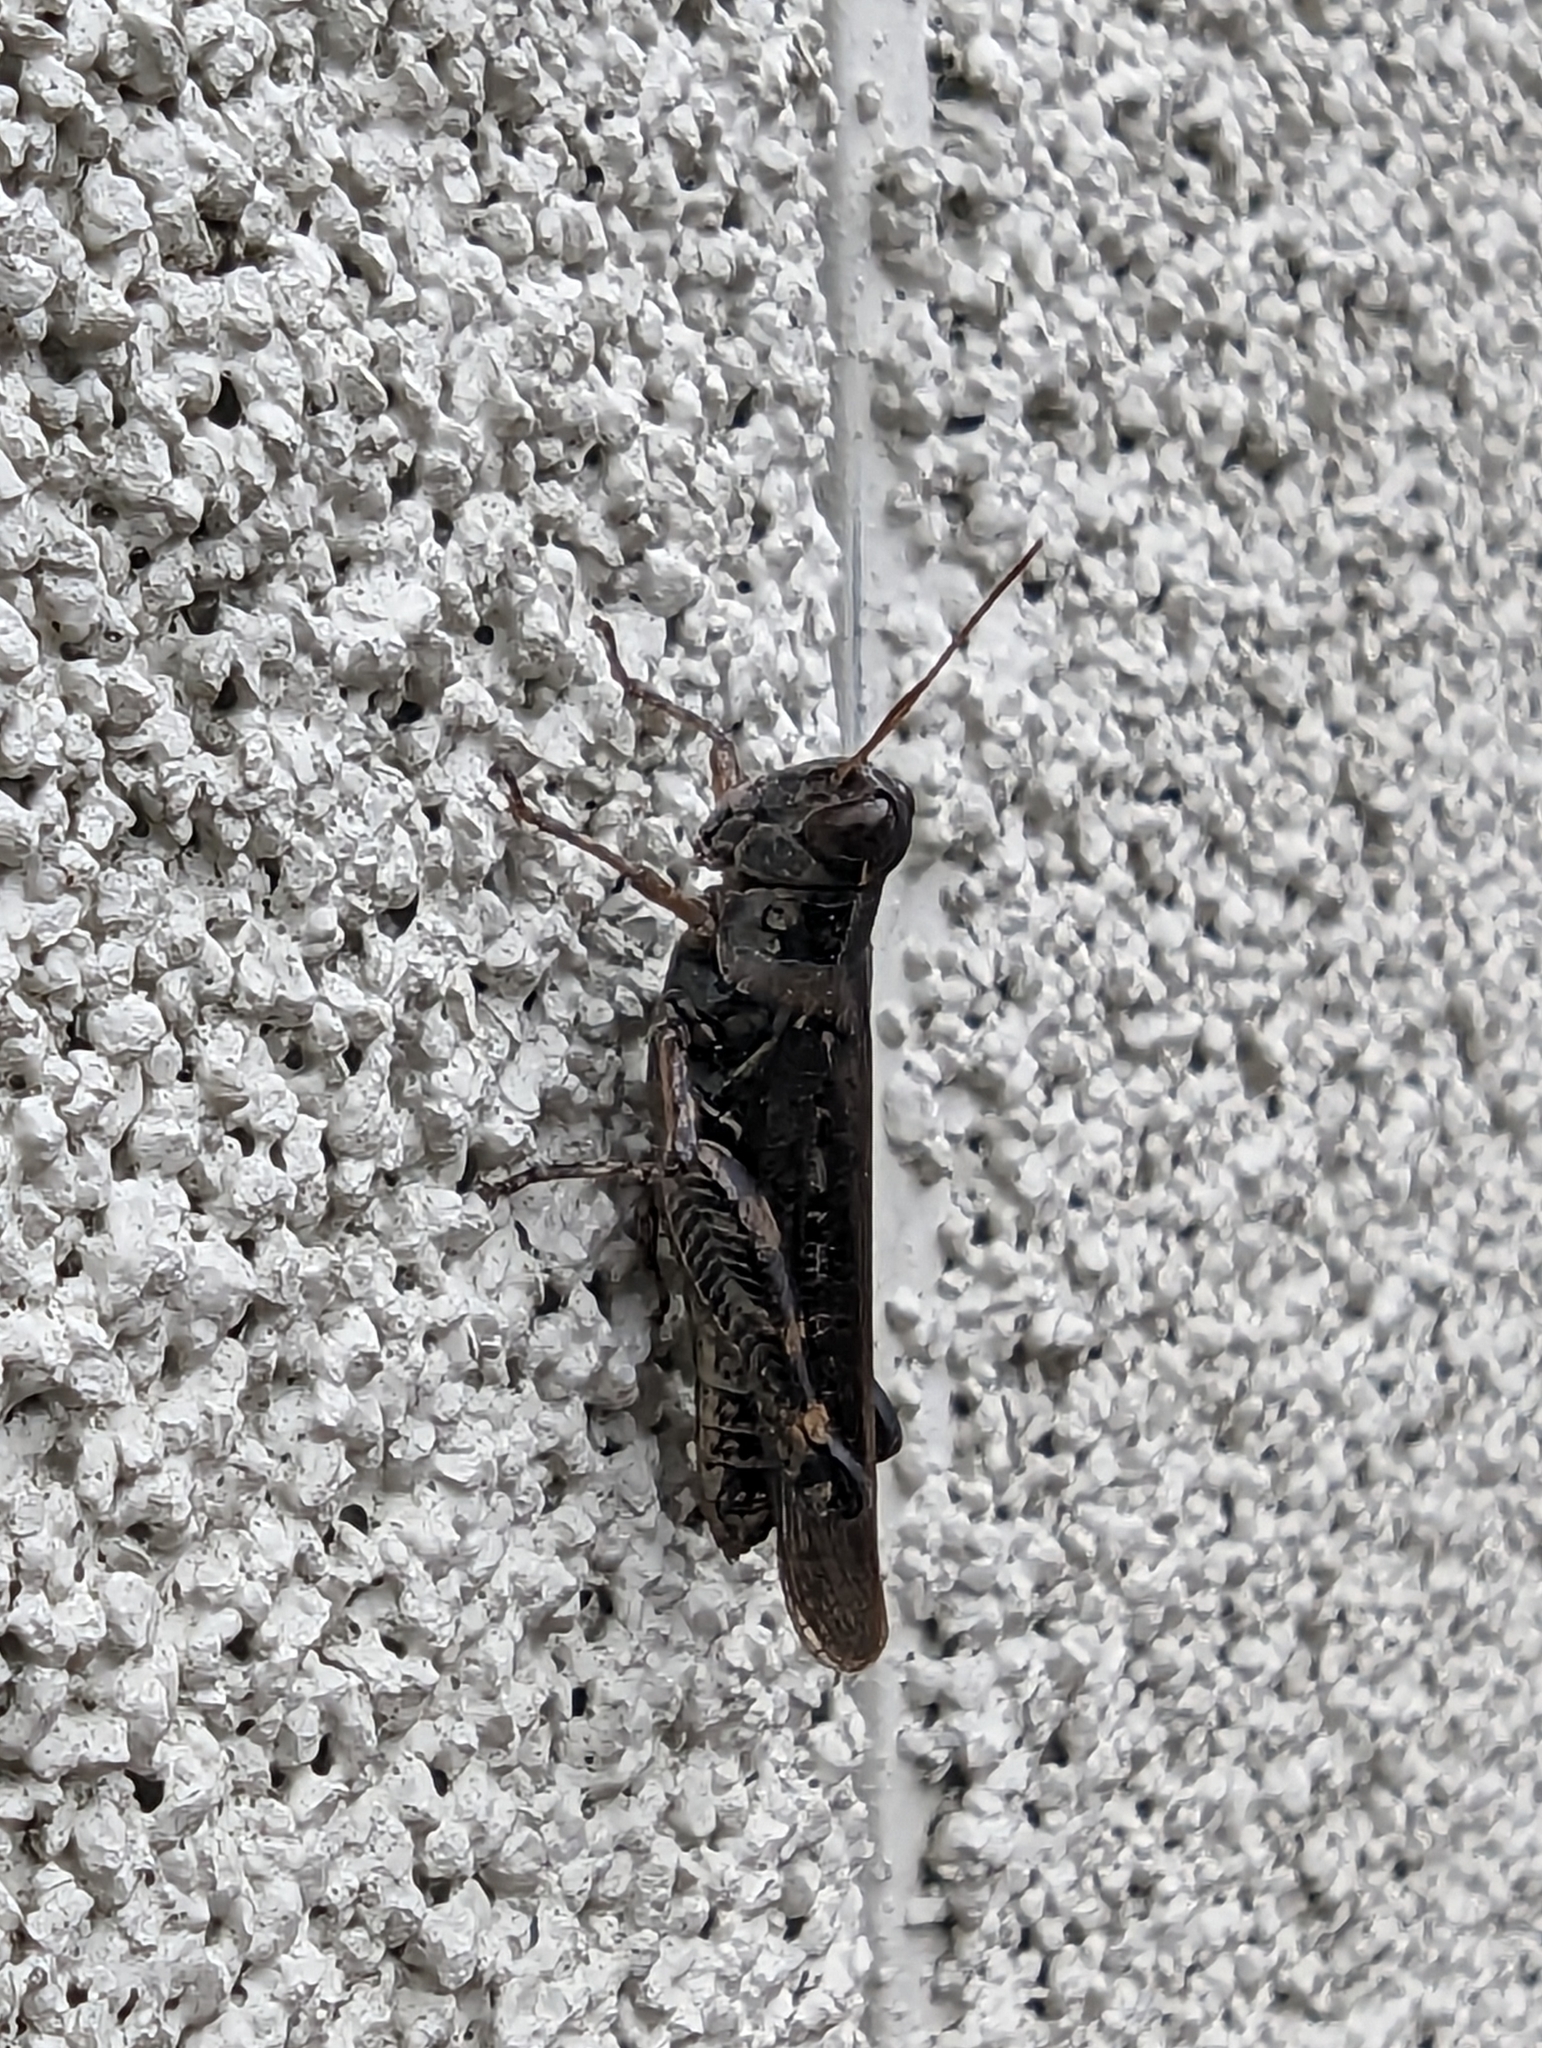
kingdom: Animalia
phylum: Arthropoda
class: Insecta
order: Orthoptera
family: Acrididae
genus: Melanoplus
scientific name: Melanoplus sanguinipes
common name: Migratory grasshopper
